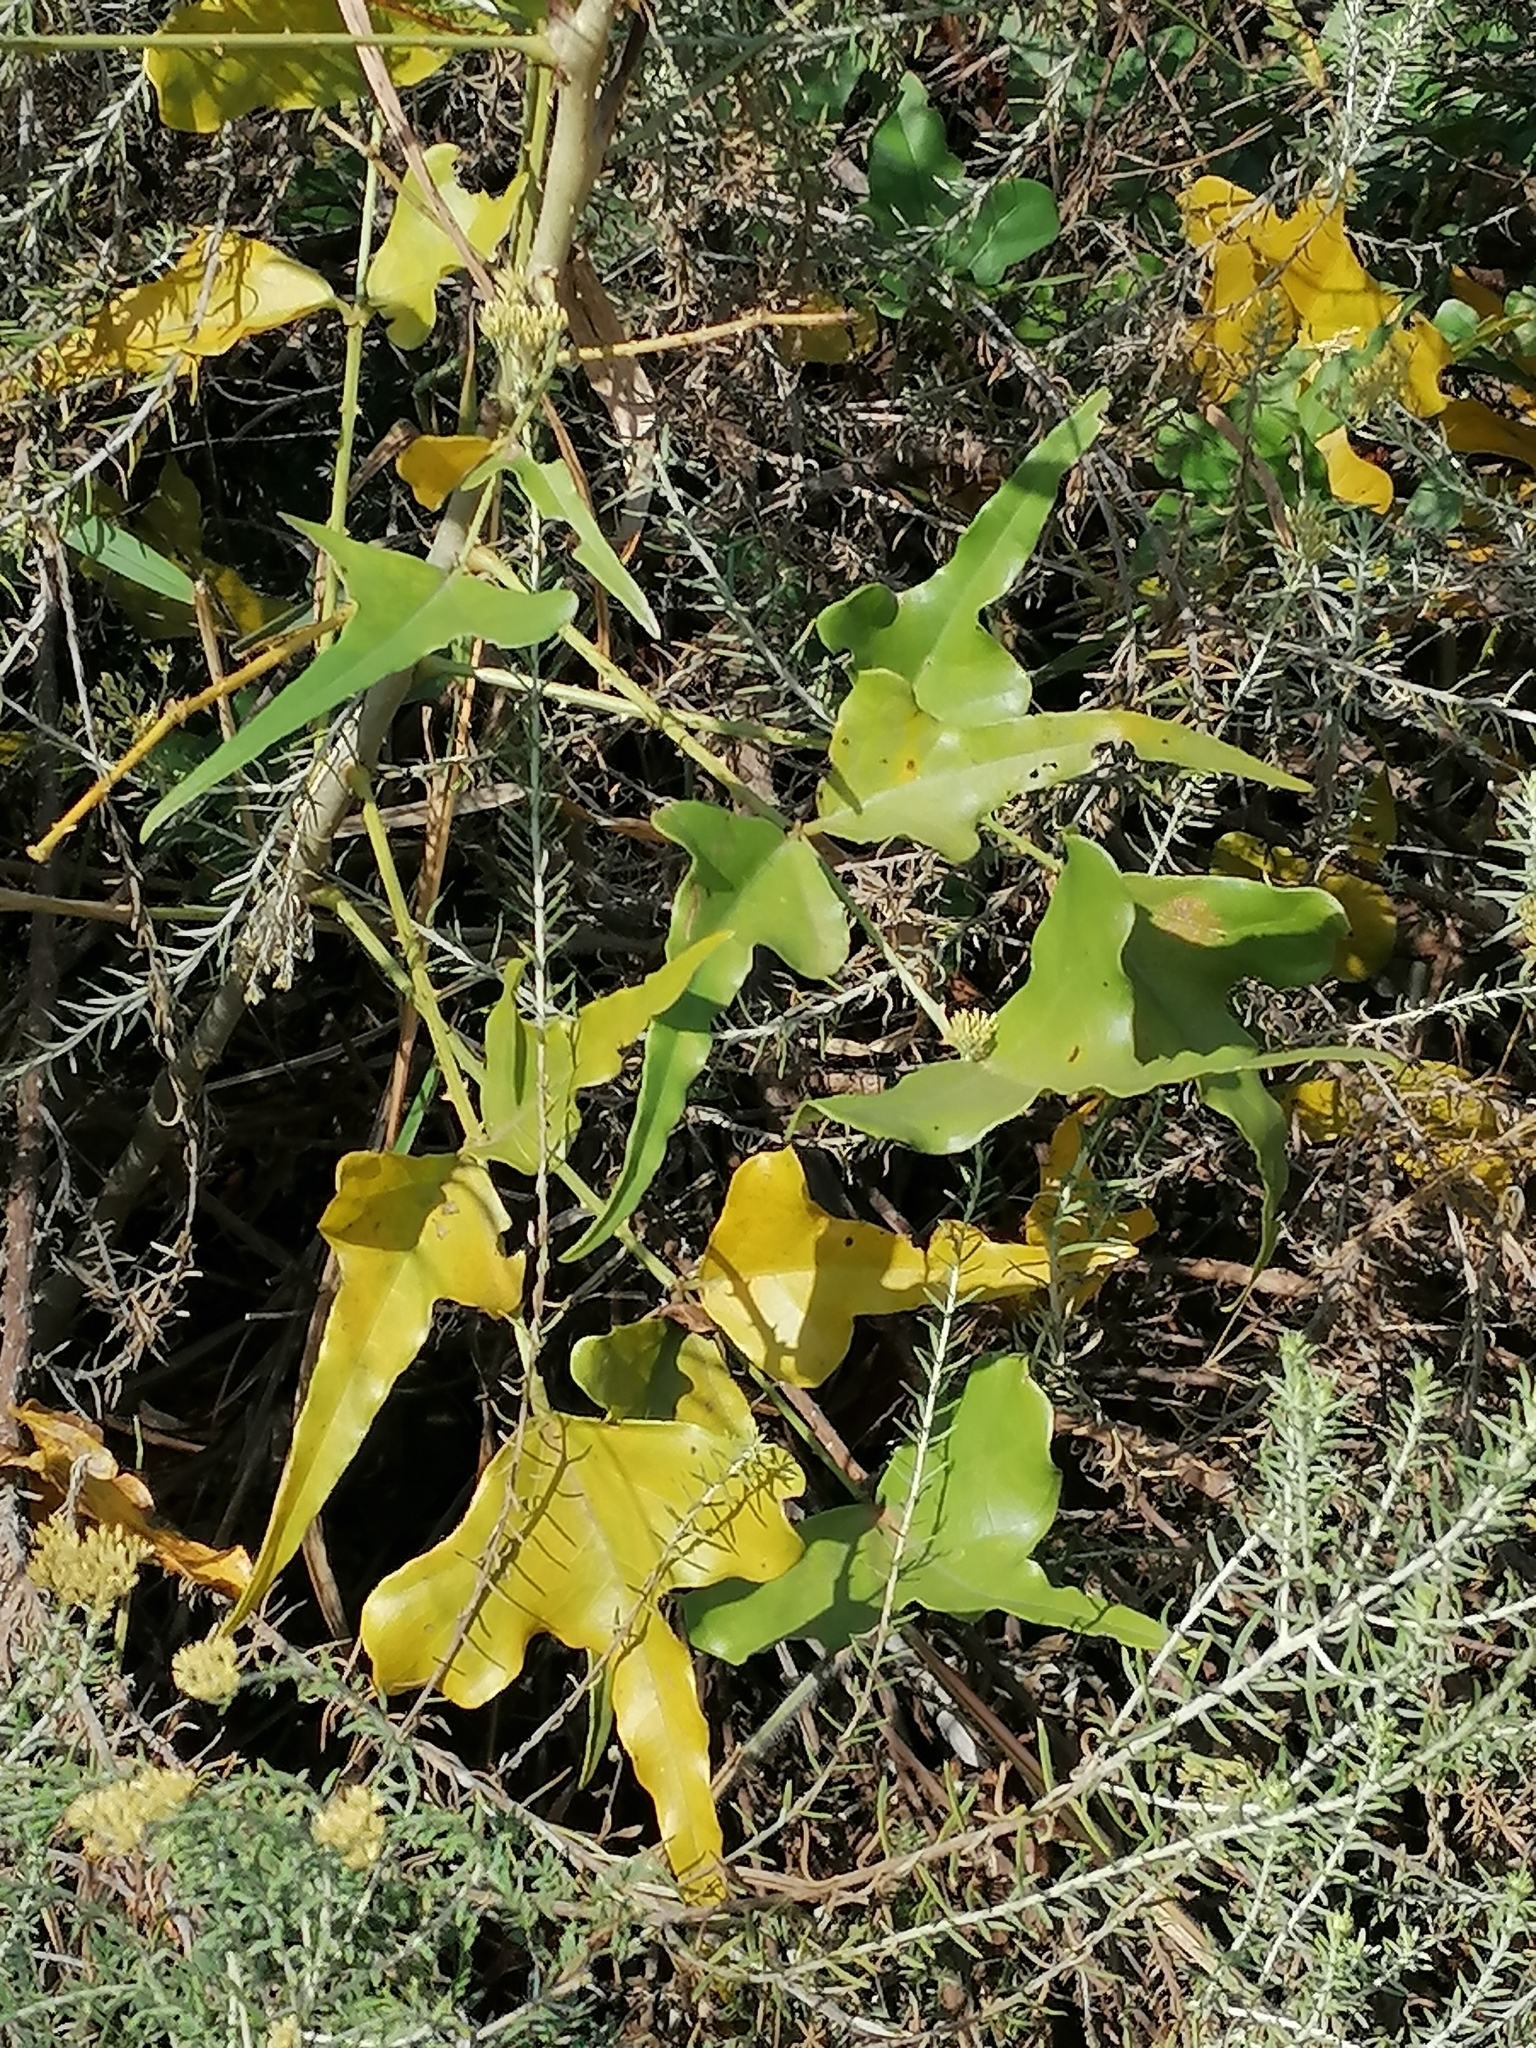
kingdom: Plantae
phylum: Tracheophyta
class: Magnoliopsida
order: Fabales
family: Fabaceae
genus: Erythrina
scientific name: Erythrina humeana
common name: Dwarf coral tree
